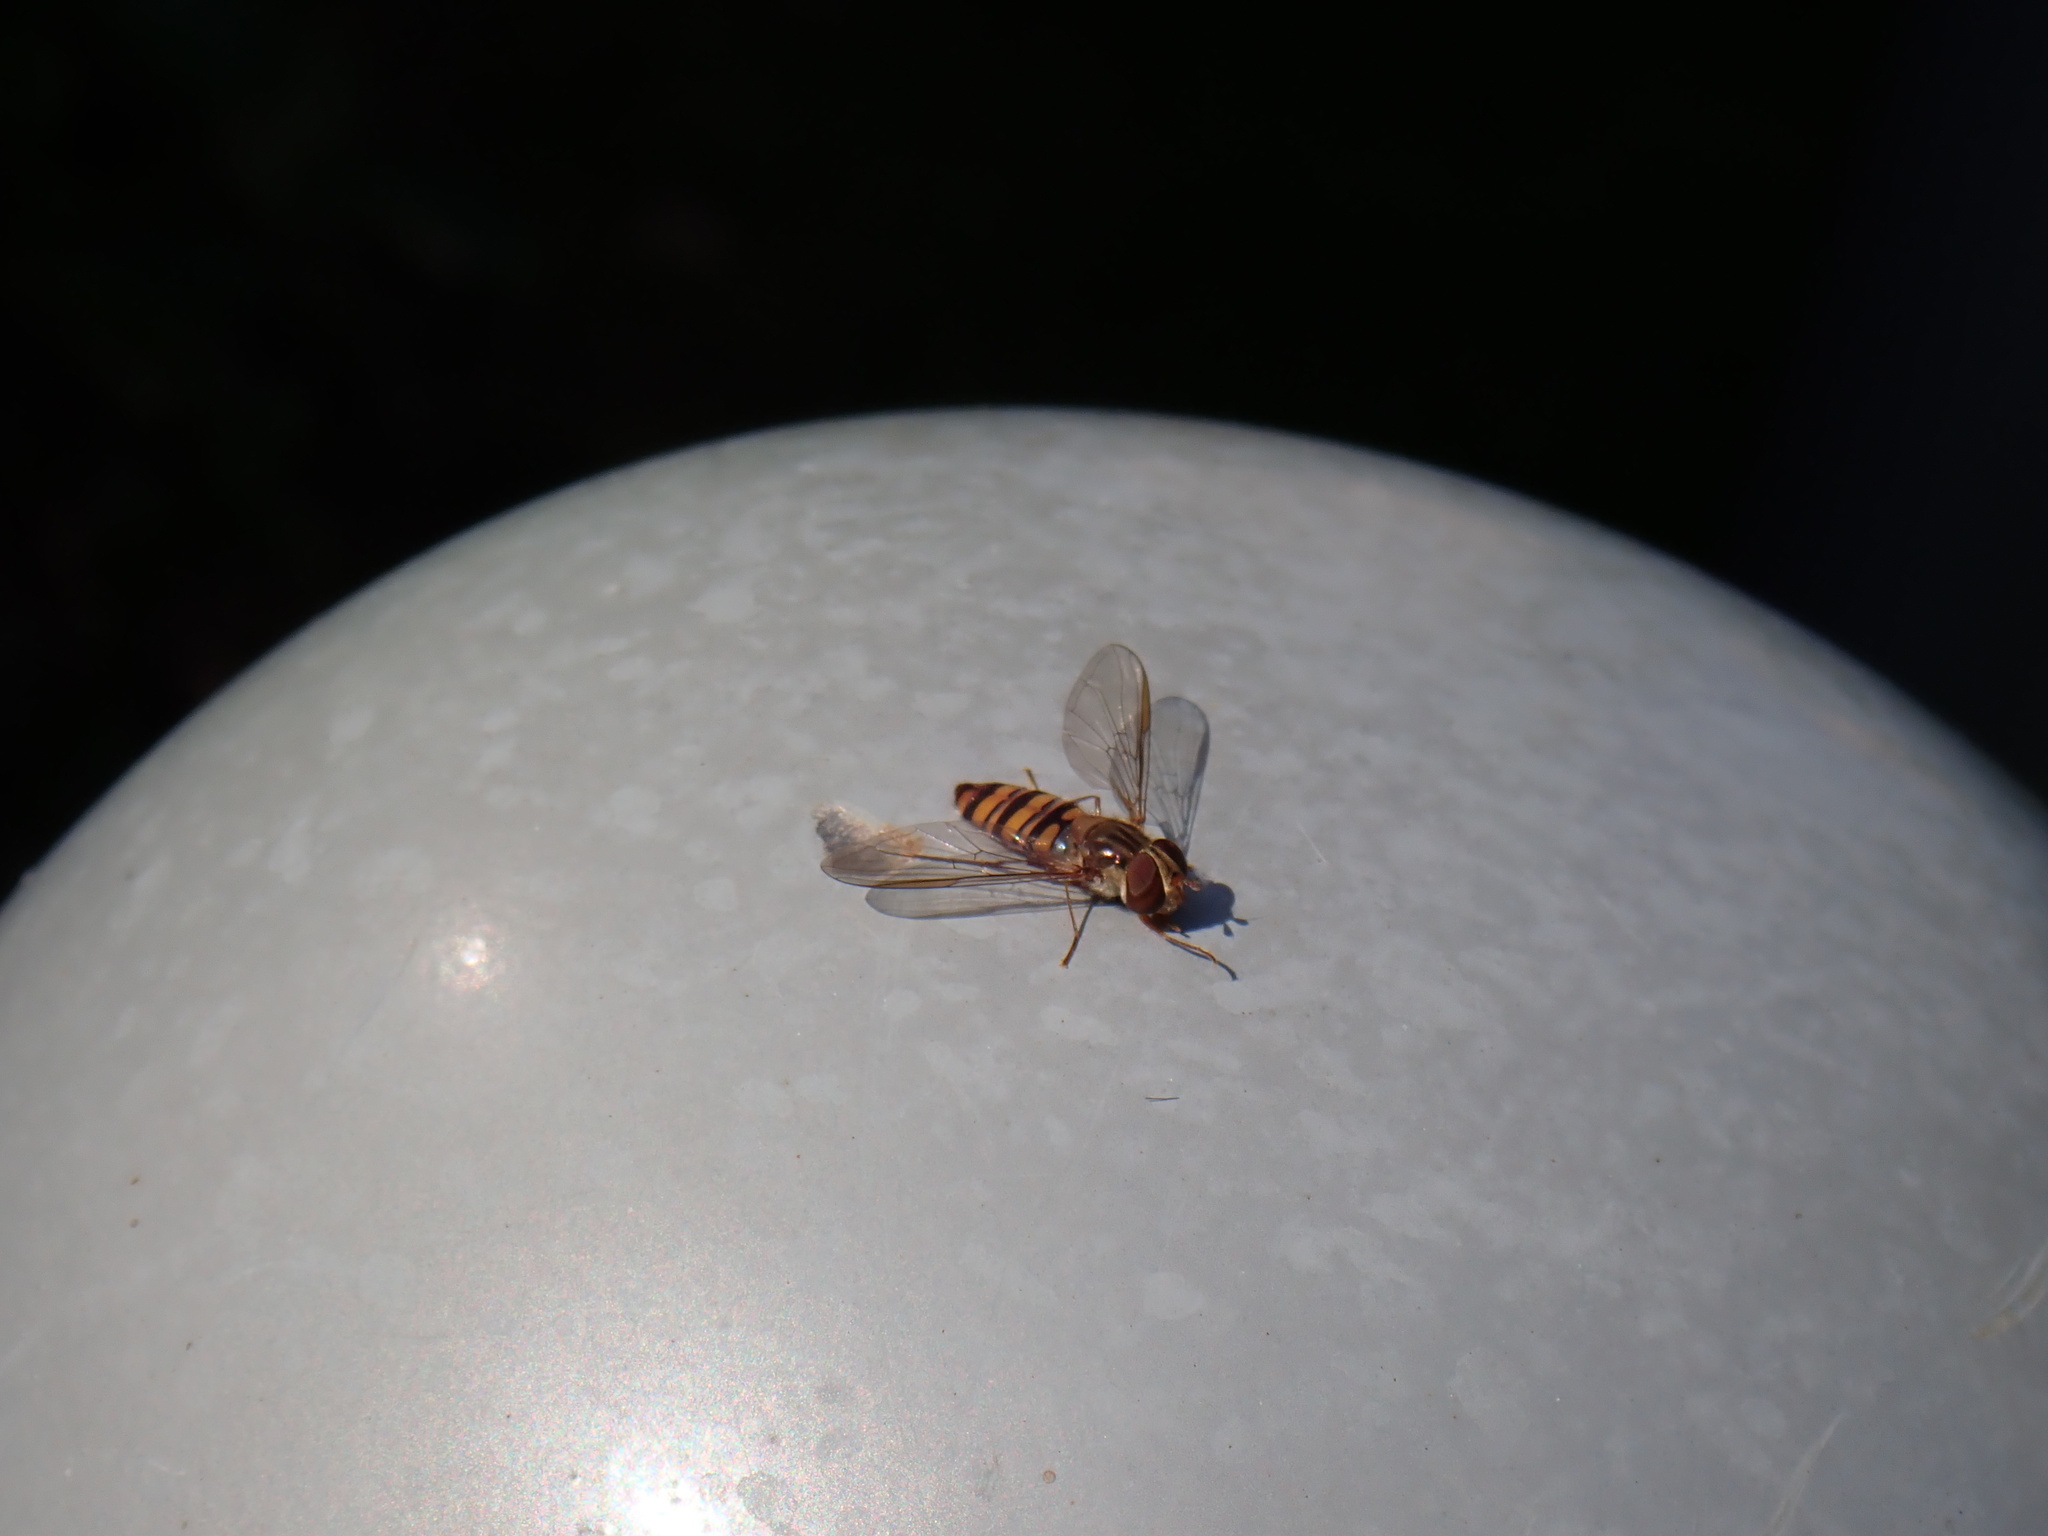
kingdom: Animalia
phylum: Arthropoda
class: Insecta
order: Diptera
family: Syrphidae
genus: Episyrphus
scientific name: Episyrphus balteatus
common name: Marmalade hoverfly
